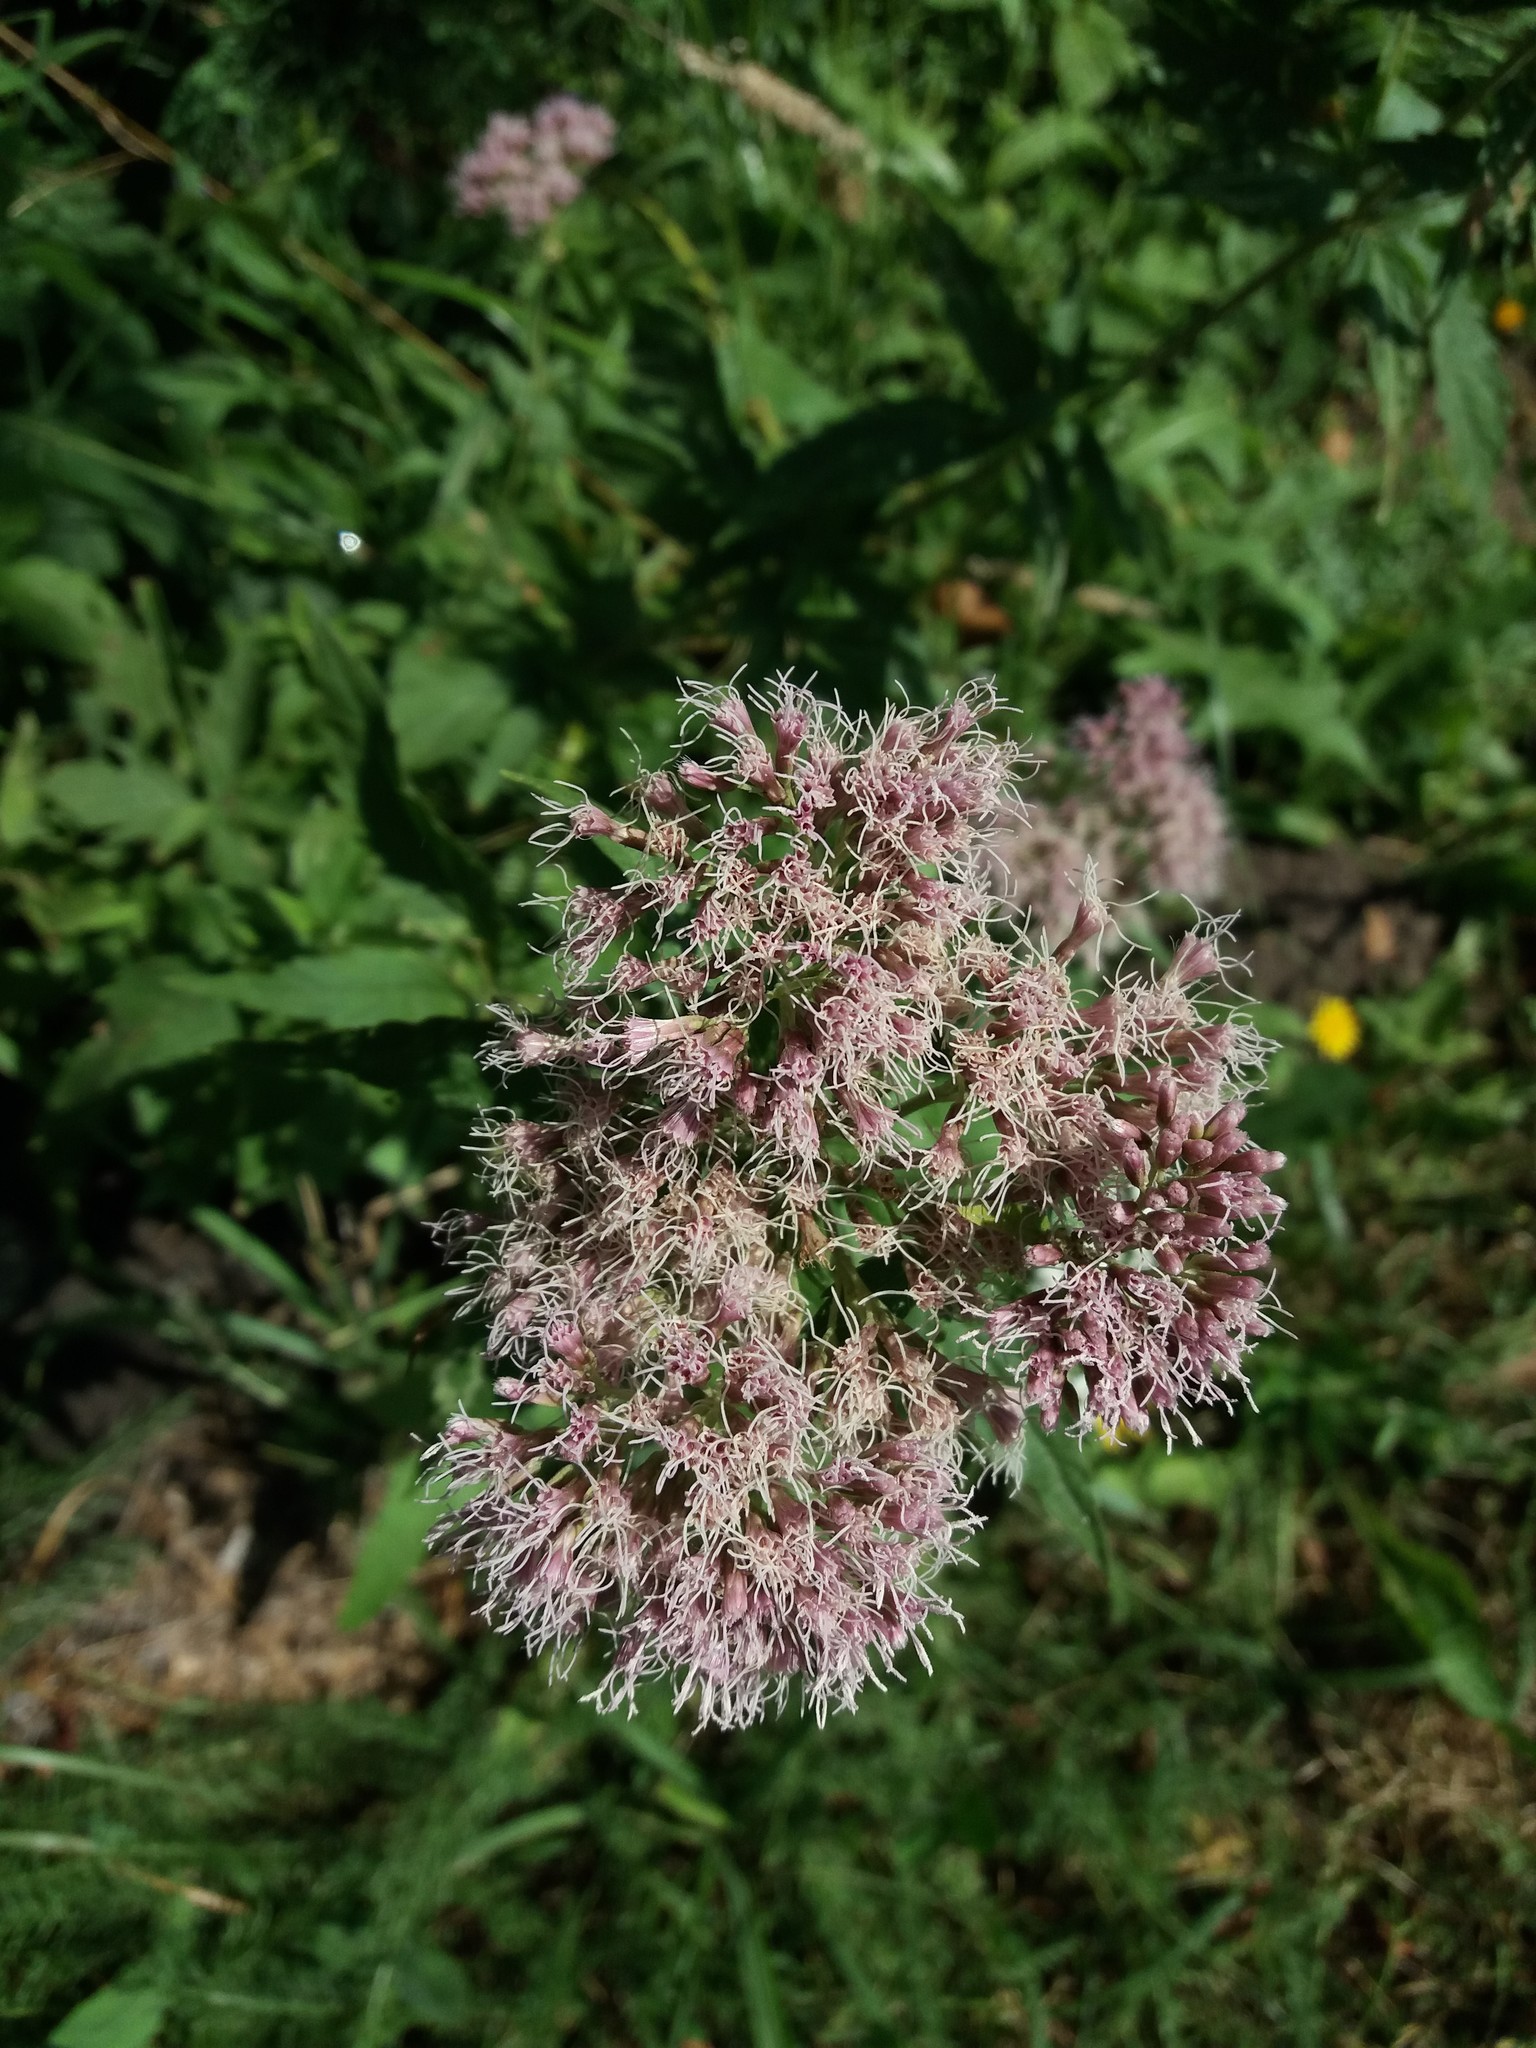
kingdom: Plantae
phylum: Tracheophyta
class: Magnoliopsida
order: Asterales
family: Asteraceae
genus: Eupatorium
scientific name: Eupatorium cannabinum
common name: Hemp-agrimony
